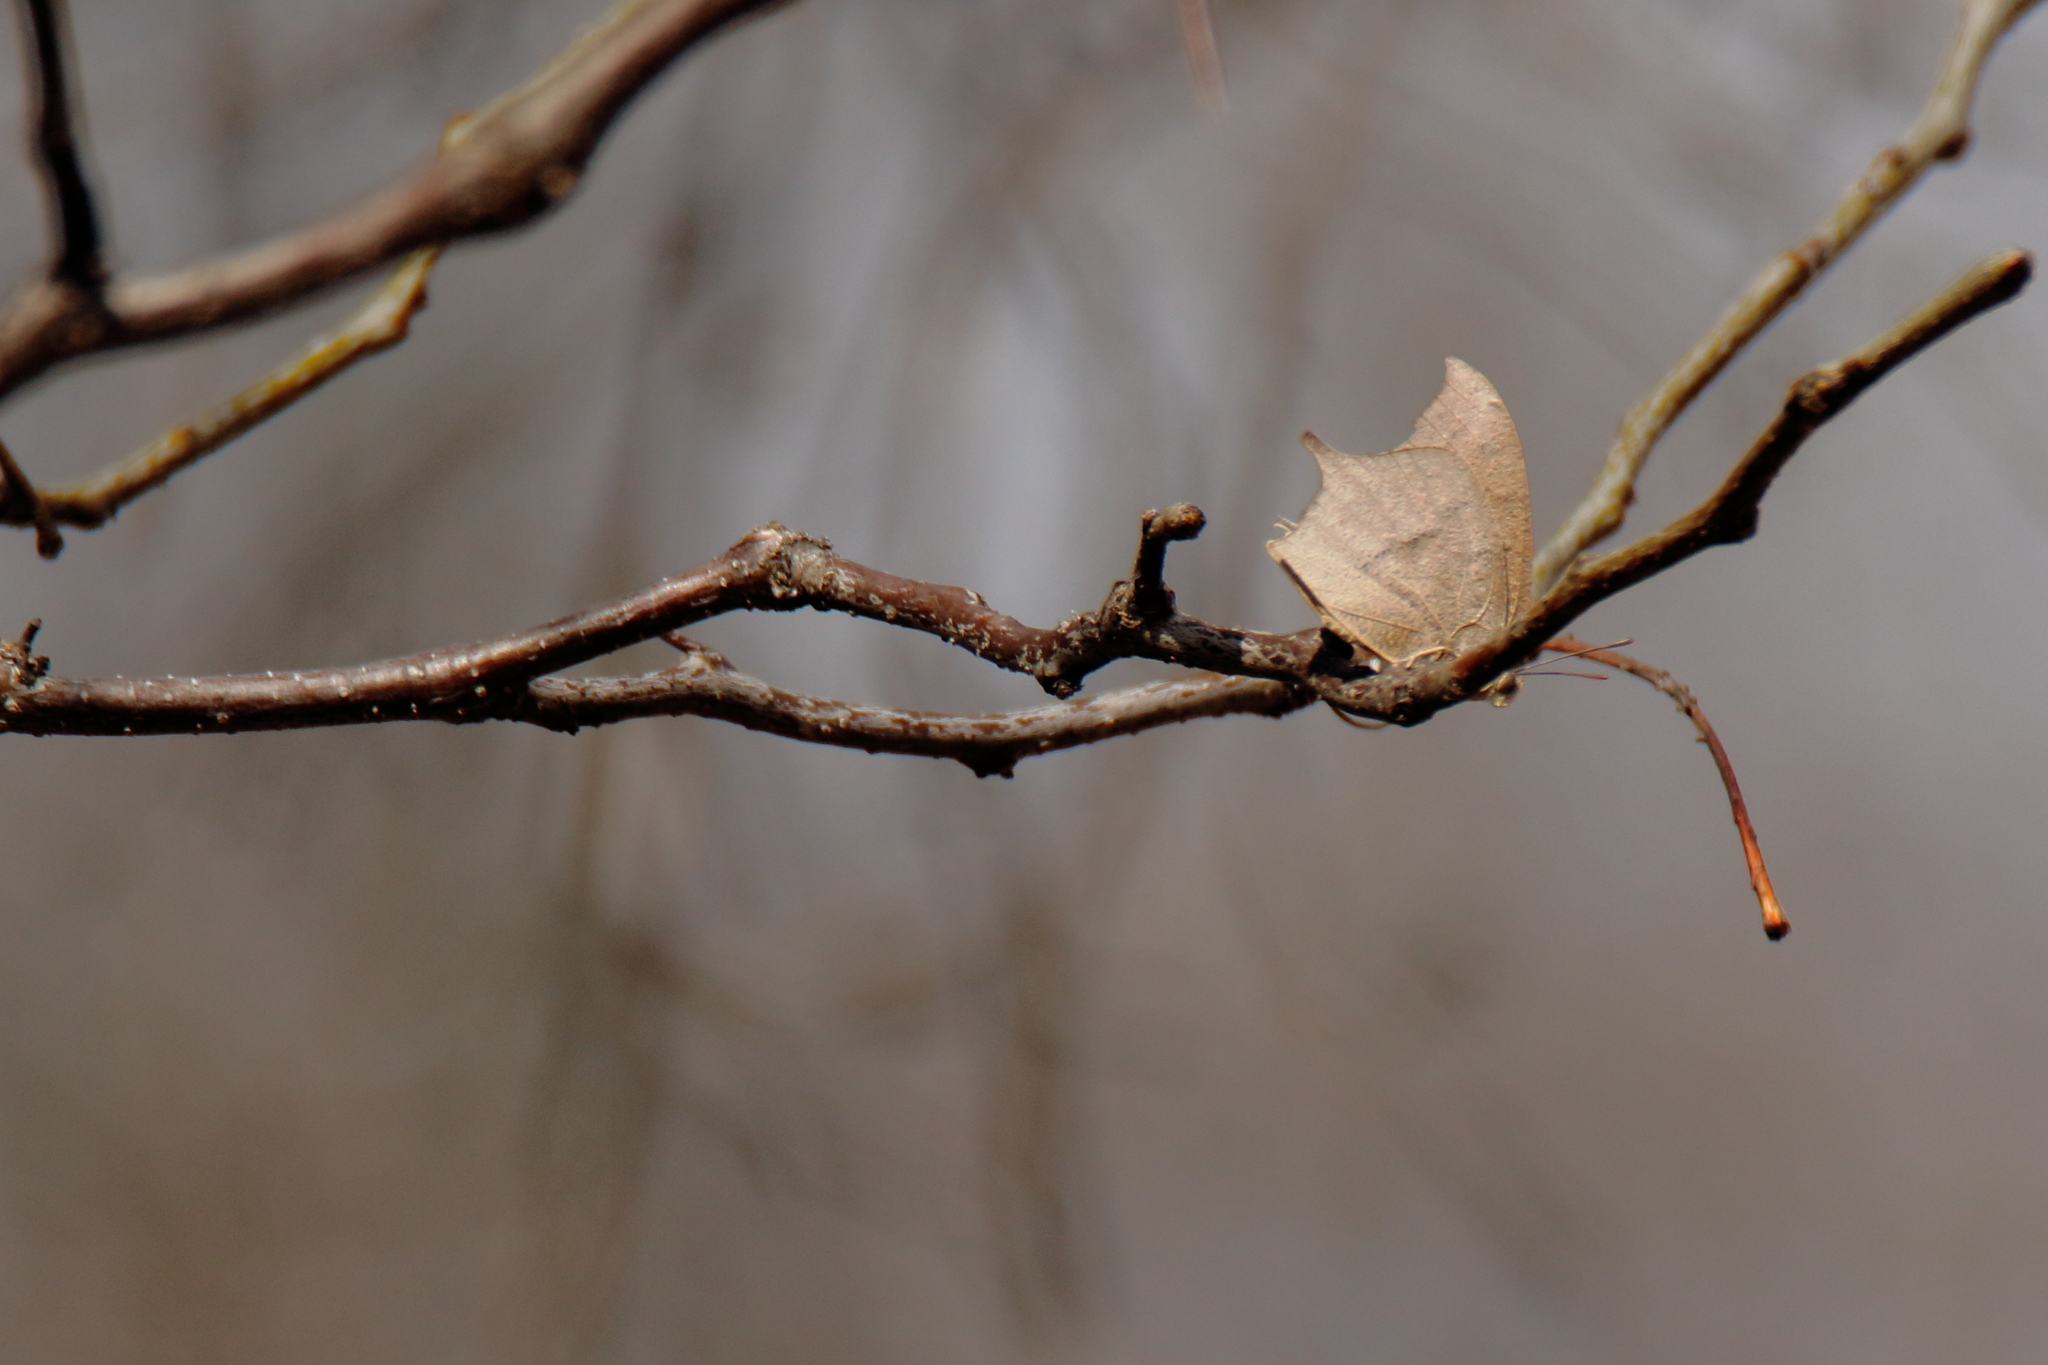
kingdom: Animalia
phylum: Arthropoda
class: Insecta
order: Lepidoptera
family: Nymphalidae
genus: Anaea
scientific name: Anaea andria
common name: Goatweed leafwing
